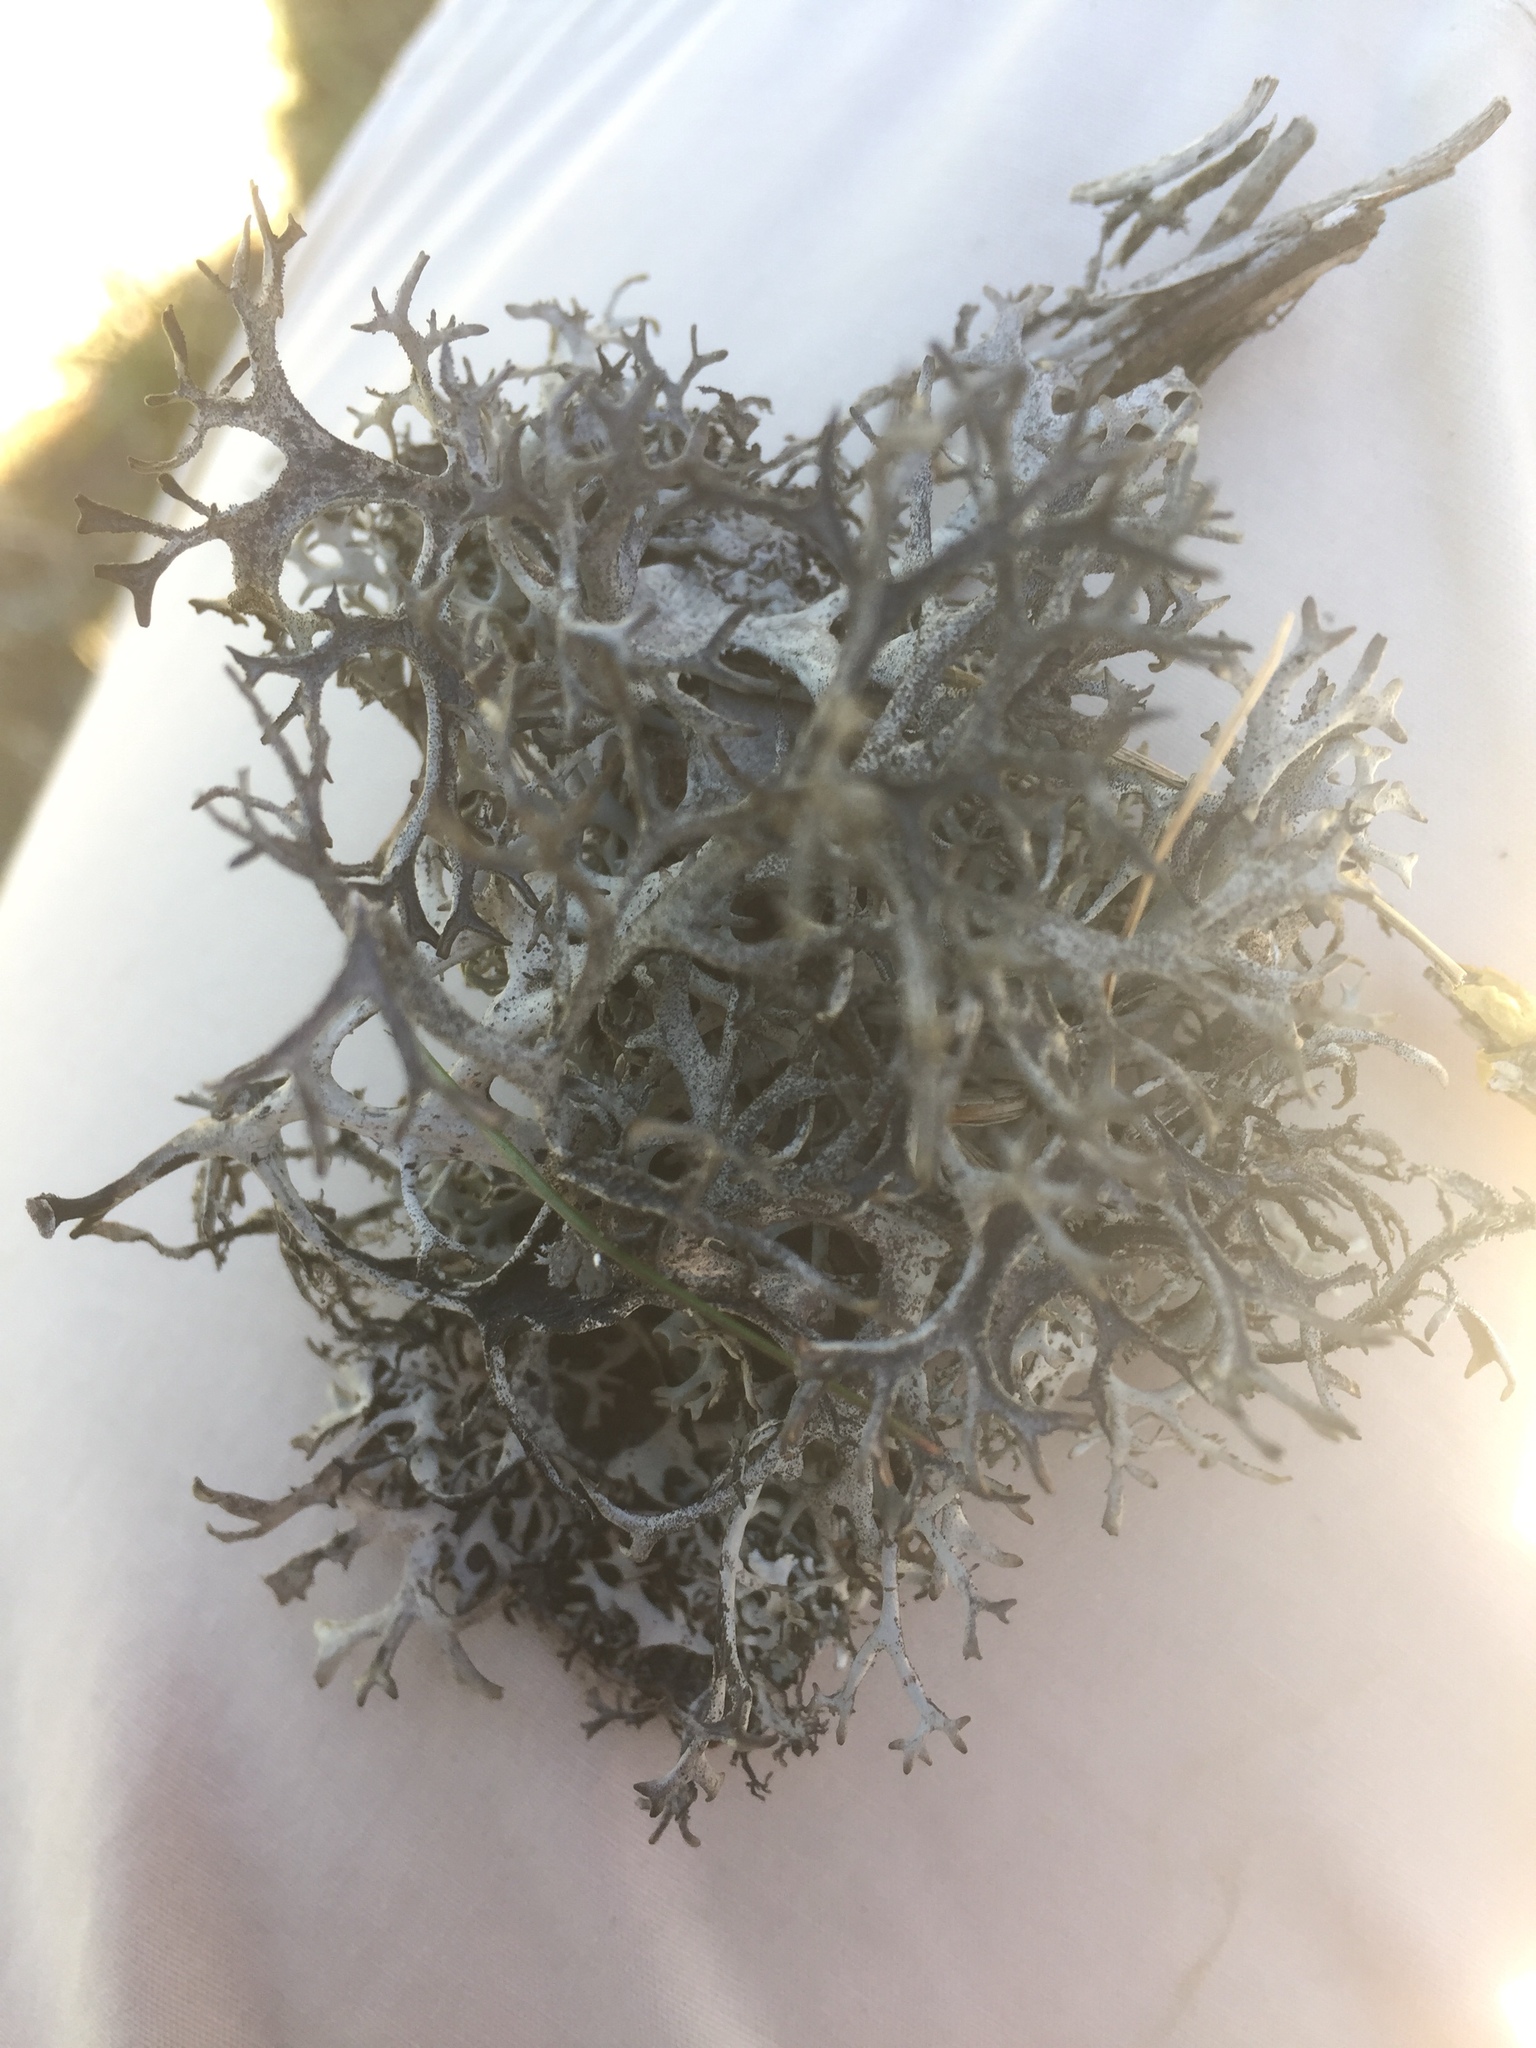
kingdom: Fungi
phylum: Ascomycota
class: Lecanoromycetes
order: Lecanorales
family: Parmeliaceae
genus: Pseudevernia
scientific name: Pseudevernia furfuracea
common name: Tree moss
